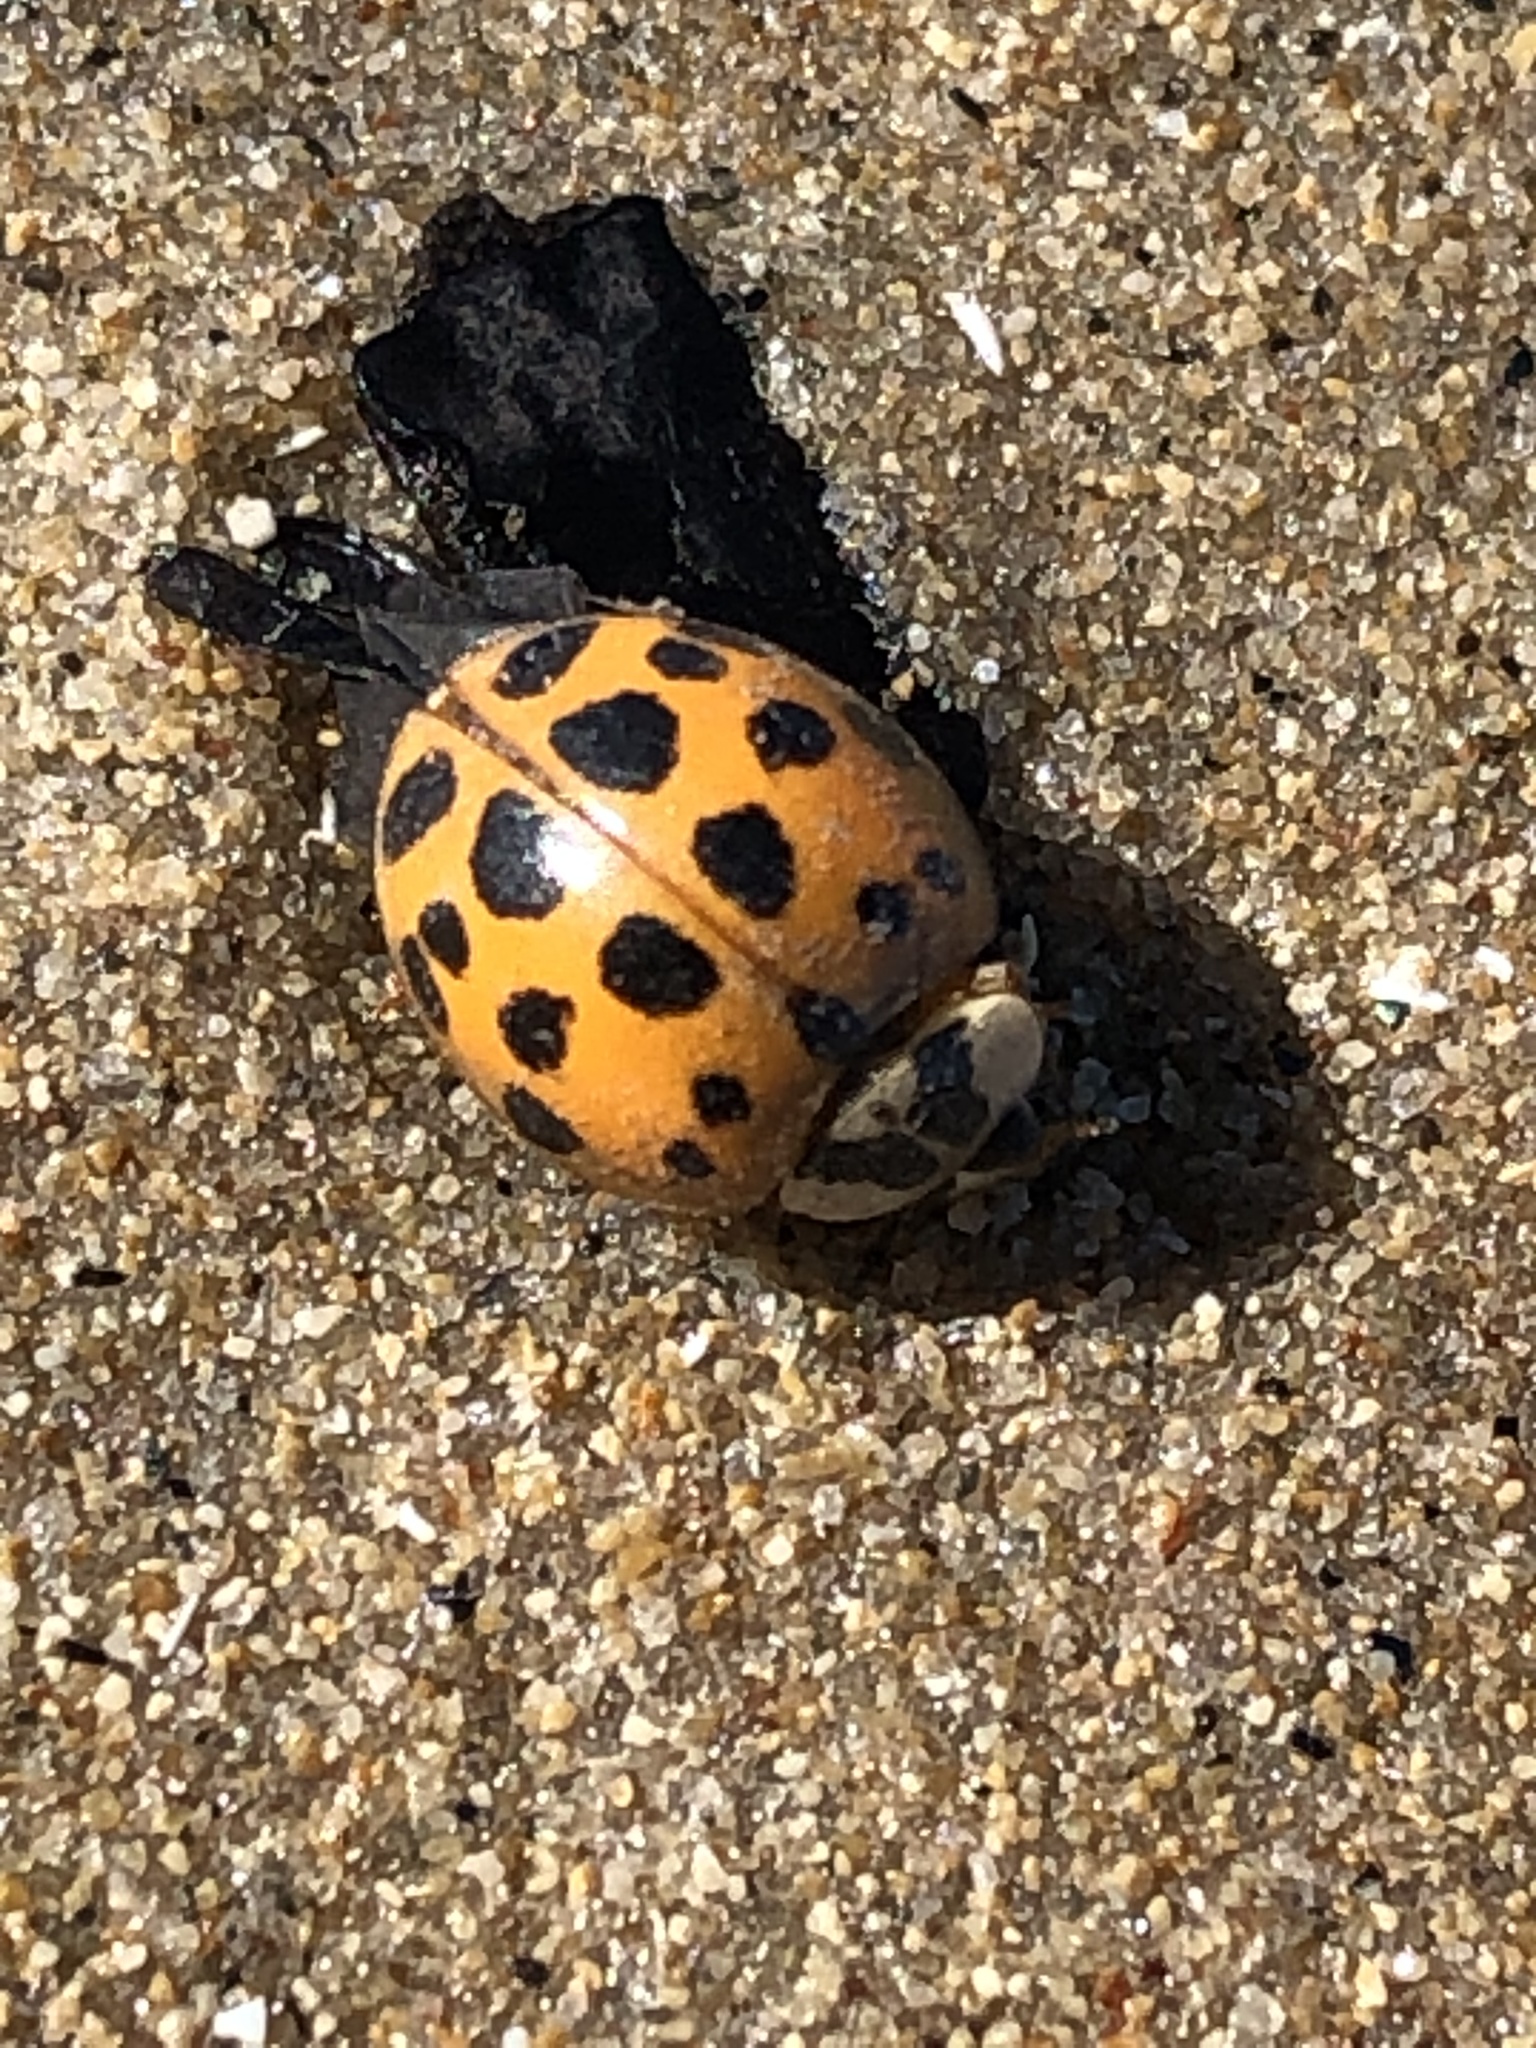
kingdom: Animalia
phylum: Arthropoda
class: Insecta
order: Coleoptera
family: Coccinellidae
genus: Harmonia
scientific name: Harmonia axyridis
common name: Harlequin ladybird
